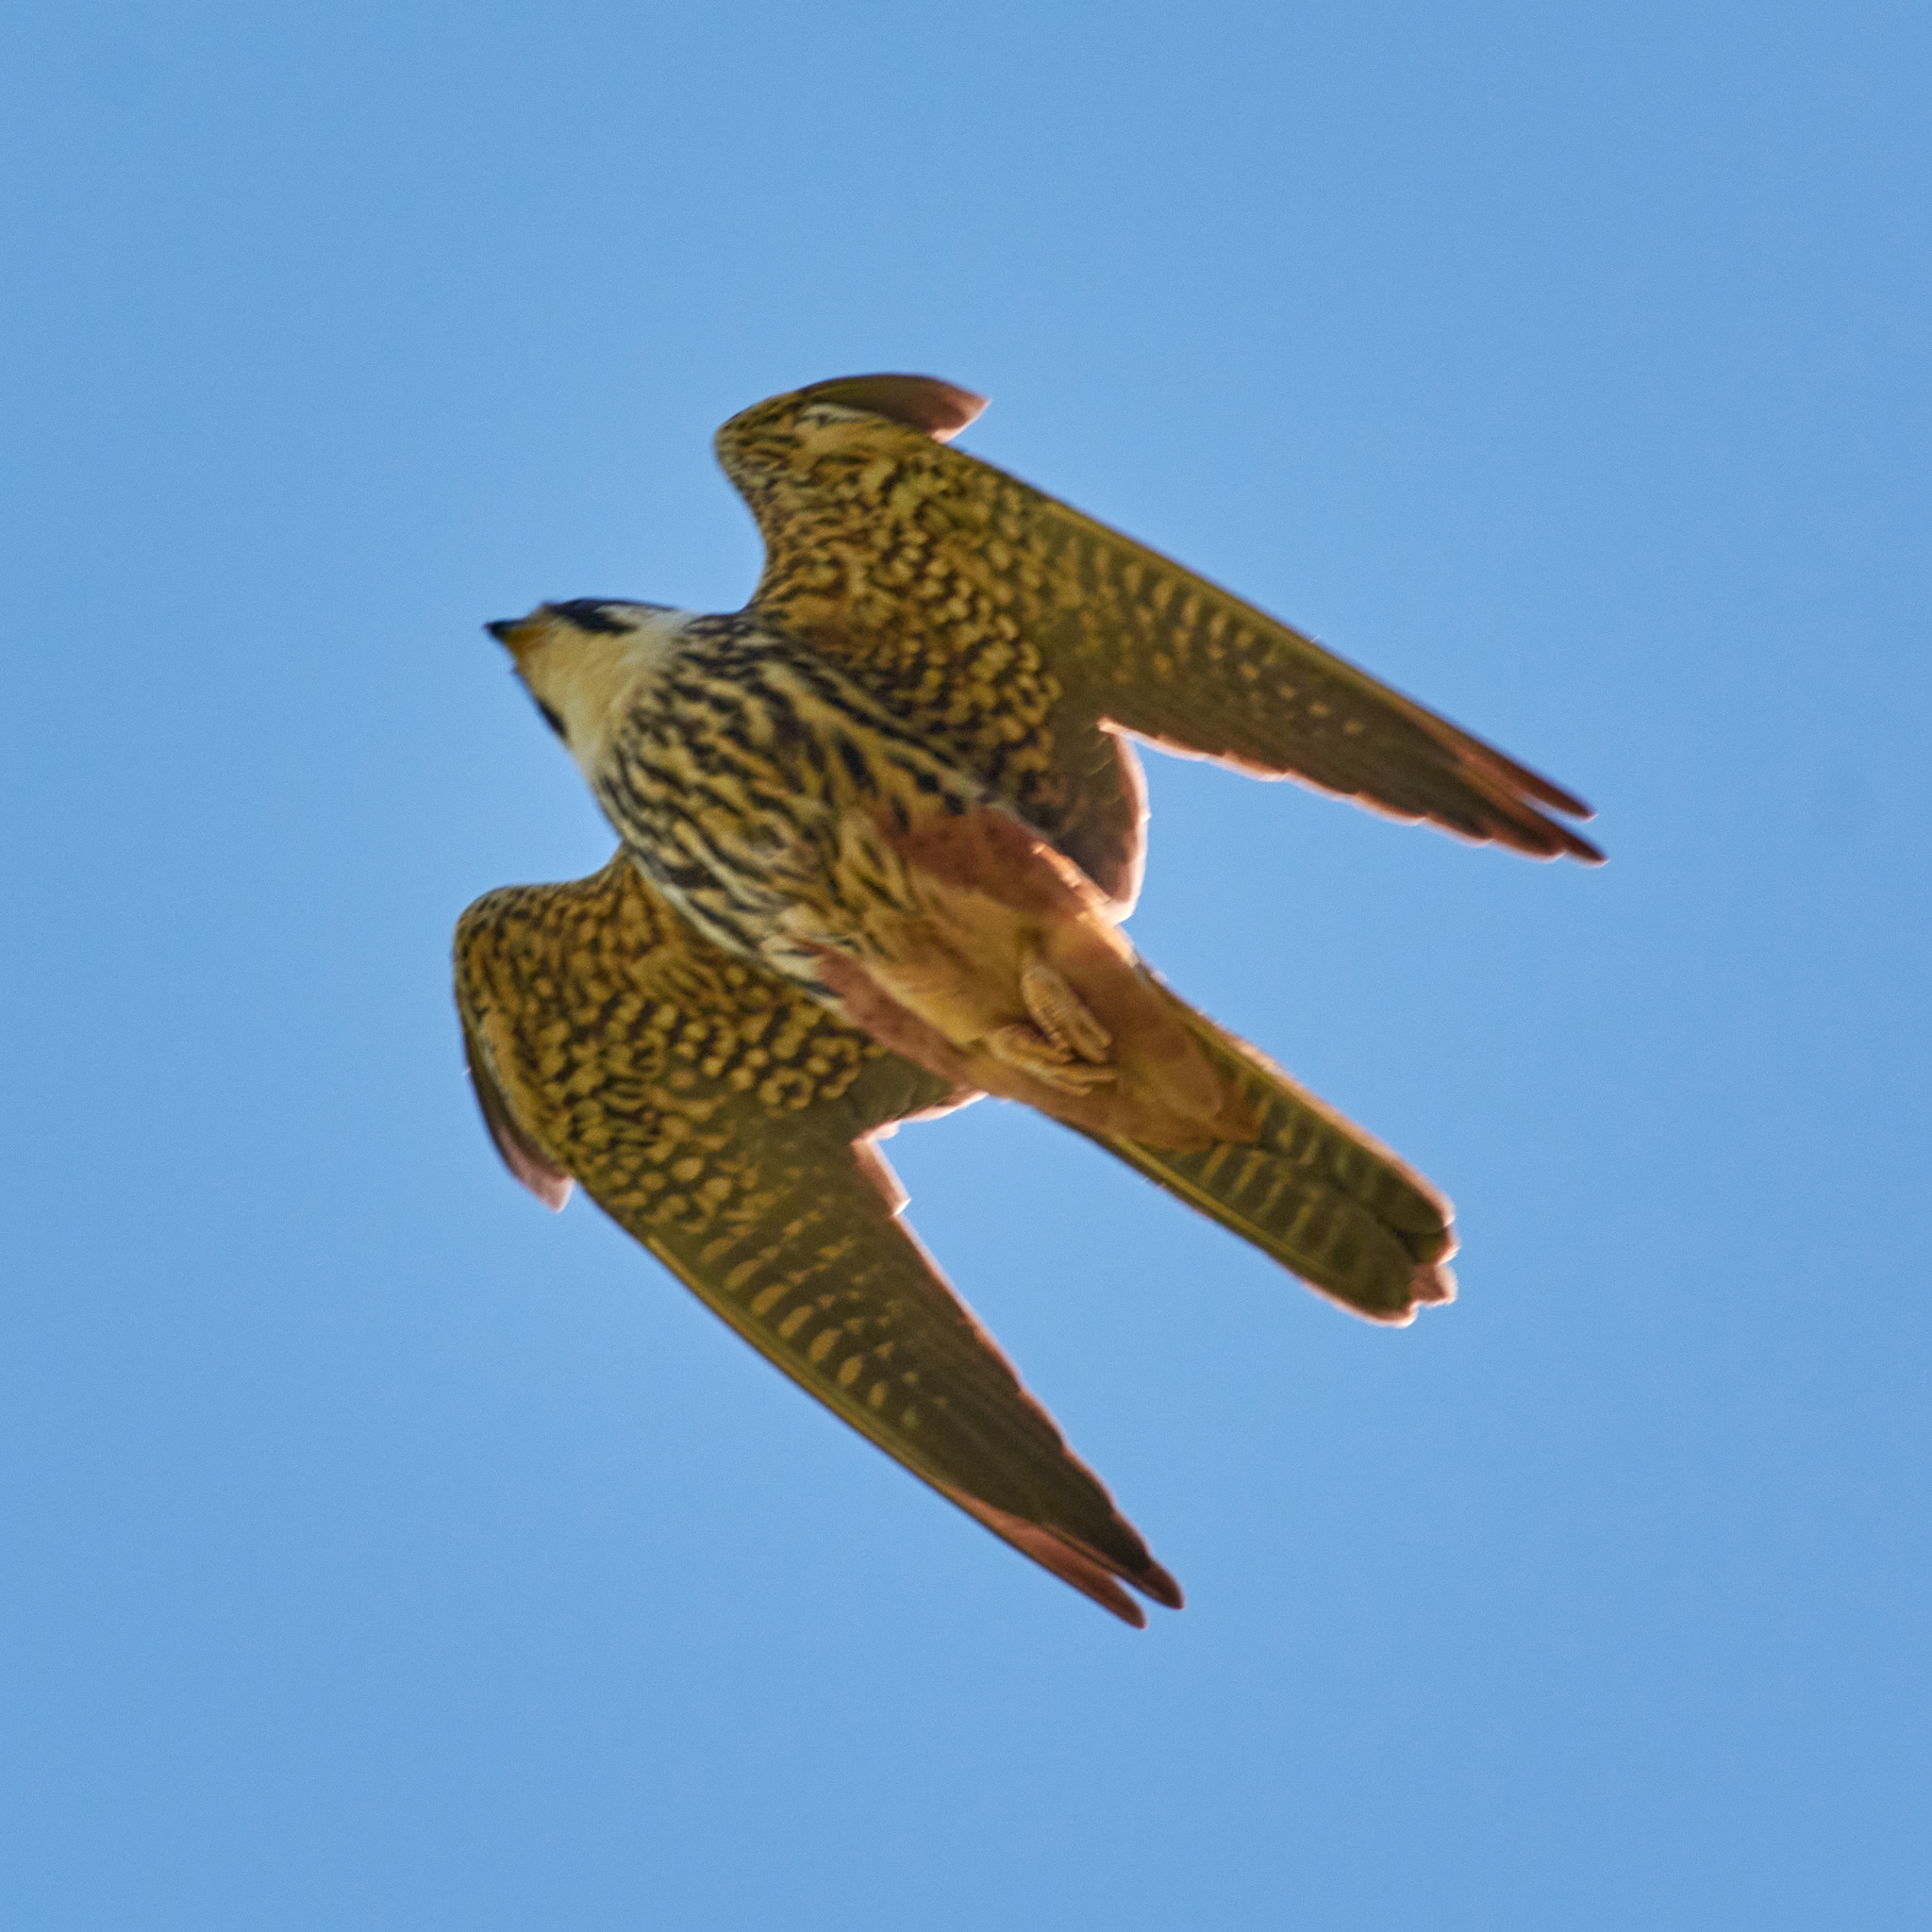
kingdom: Animalia
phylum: Chordata
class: Aves
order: Falconiformes
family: Falconidae
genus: Falco
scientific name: Falco subbuteo
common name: Eurasian hobby
